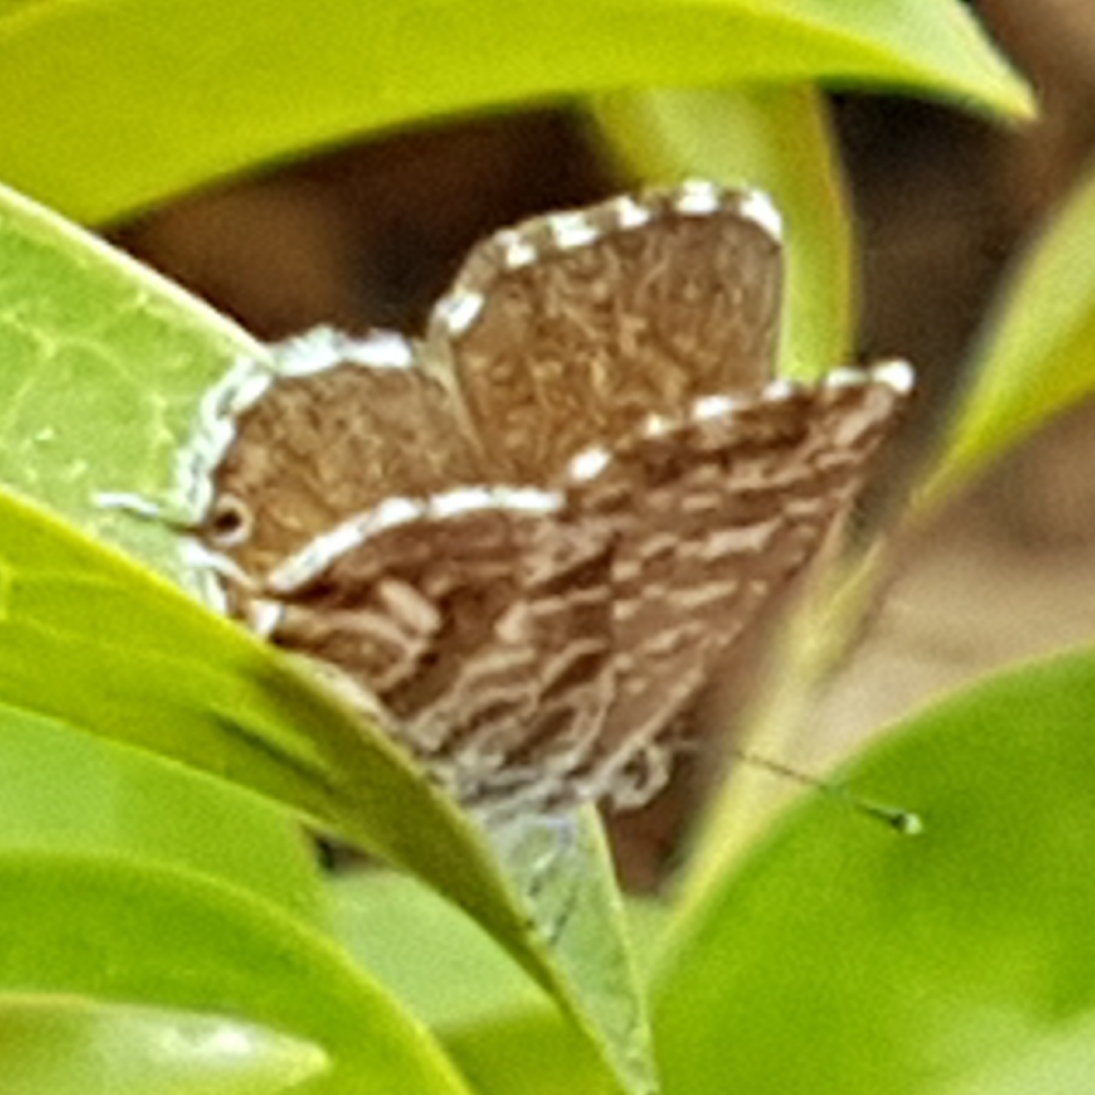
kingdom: Animalia
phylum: Arthropoda
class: Insecta
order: Lepidoptera
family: Lycaenidae
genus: Cacyreus
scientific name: Cacyreus marshalli
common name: Geranium bronze
